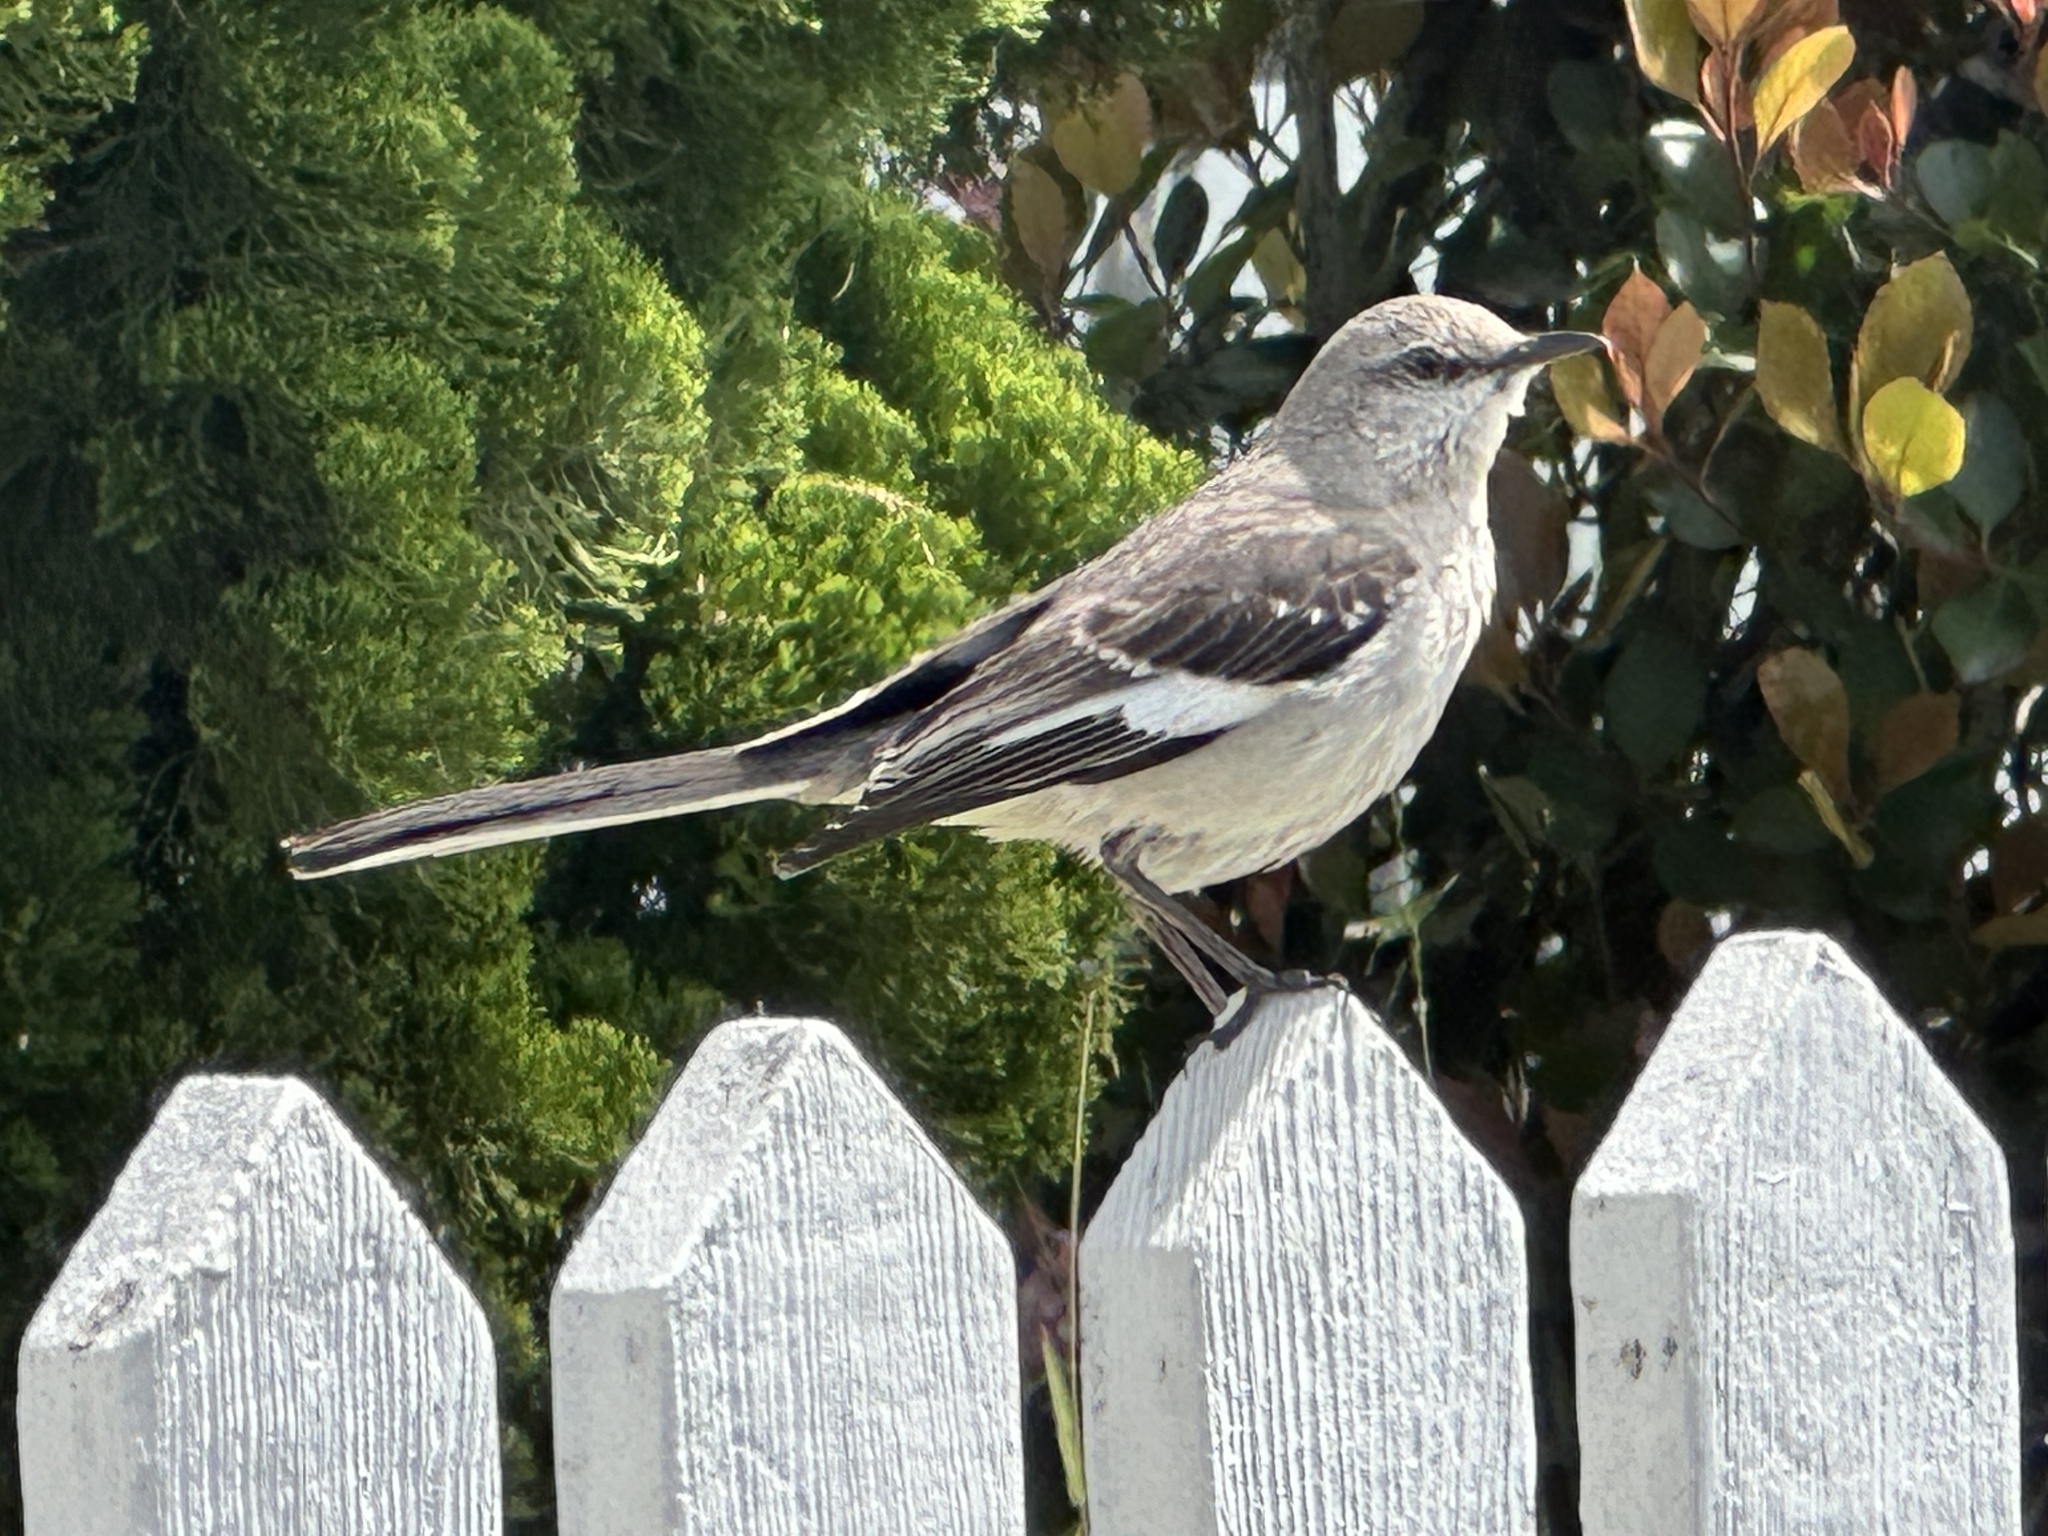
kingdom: Animalia
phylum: Chordata
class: Aves
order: Passeriformes
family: Mimidae
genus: Mimus
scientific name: Mimus polyglottos
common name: Northern mockingbird
